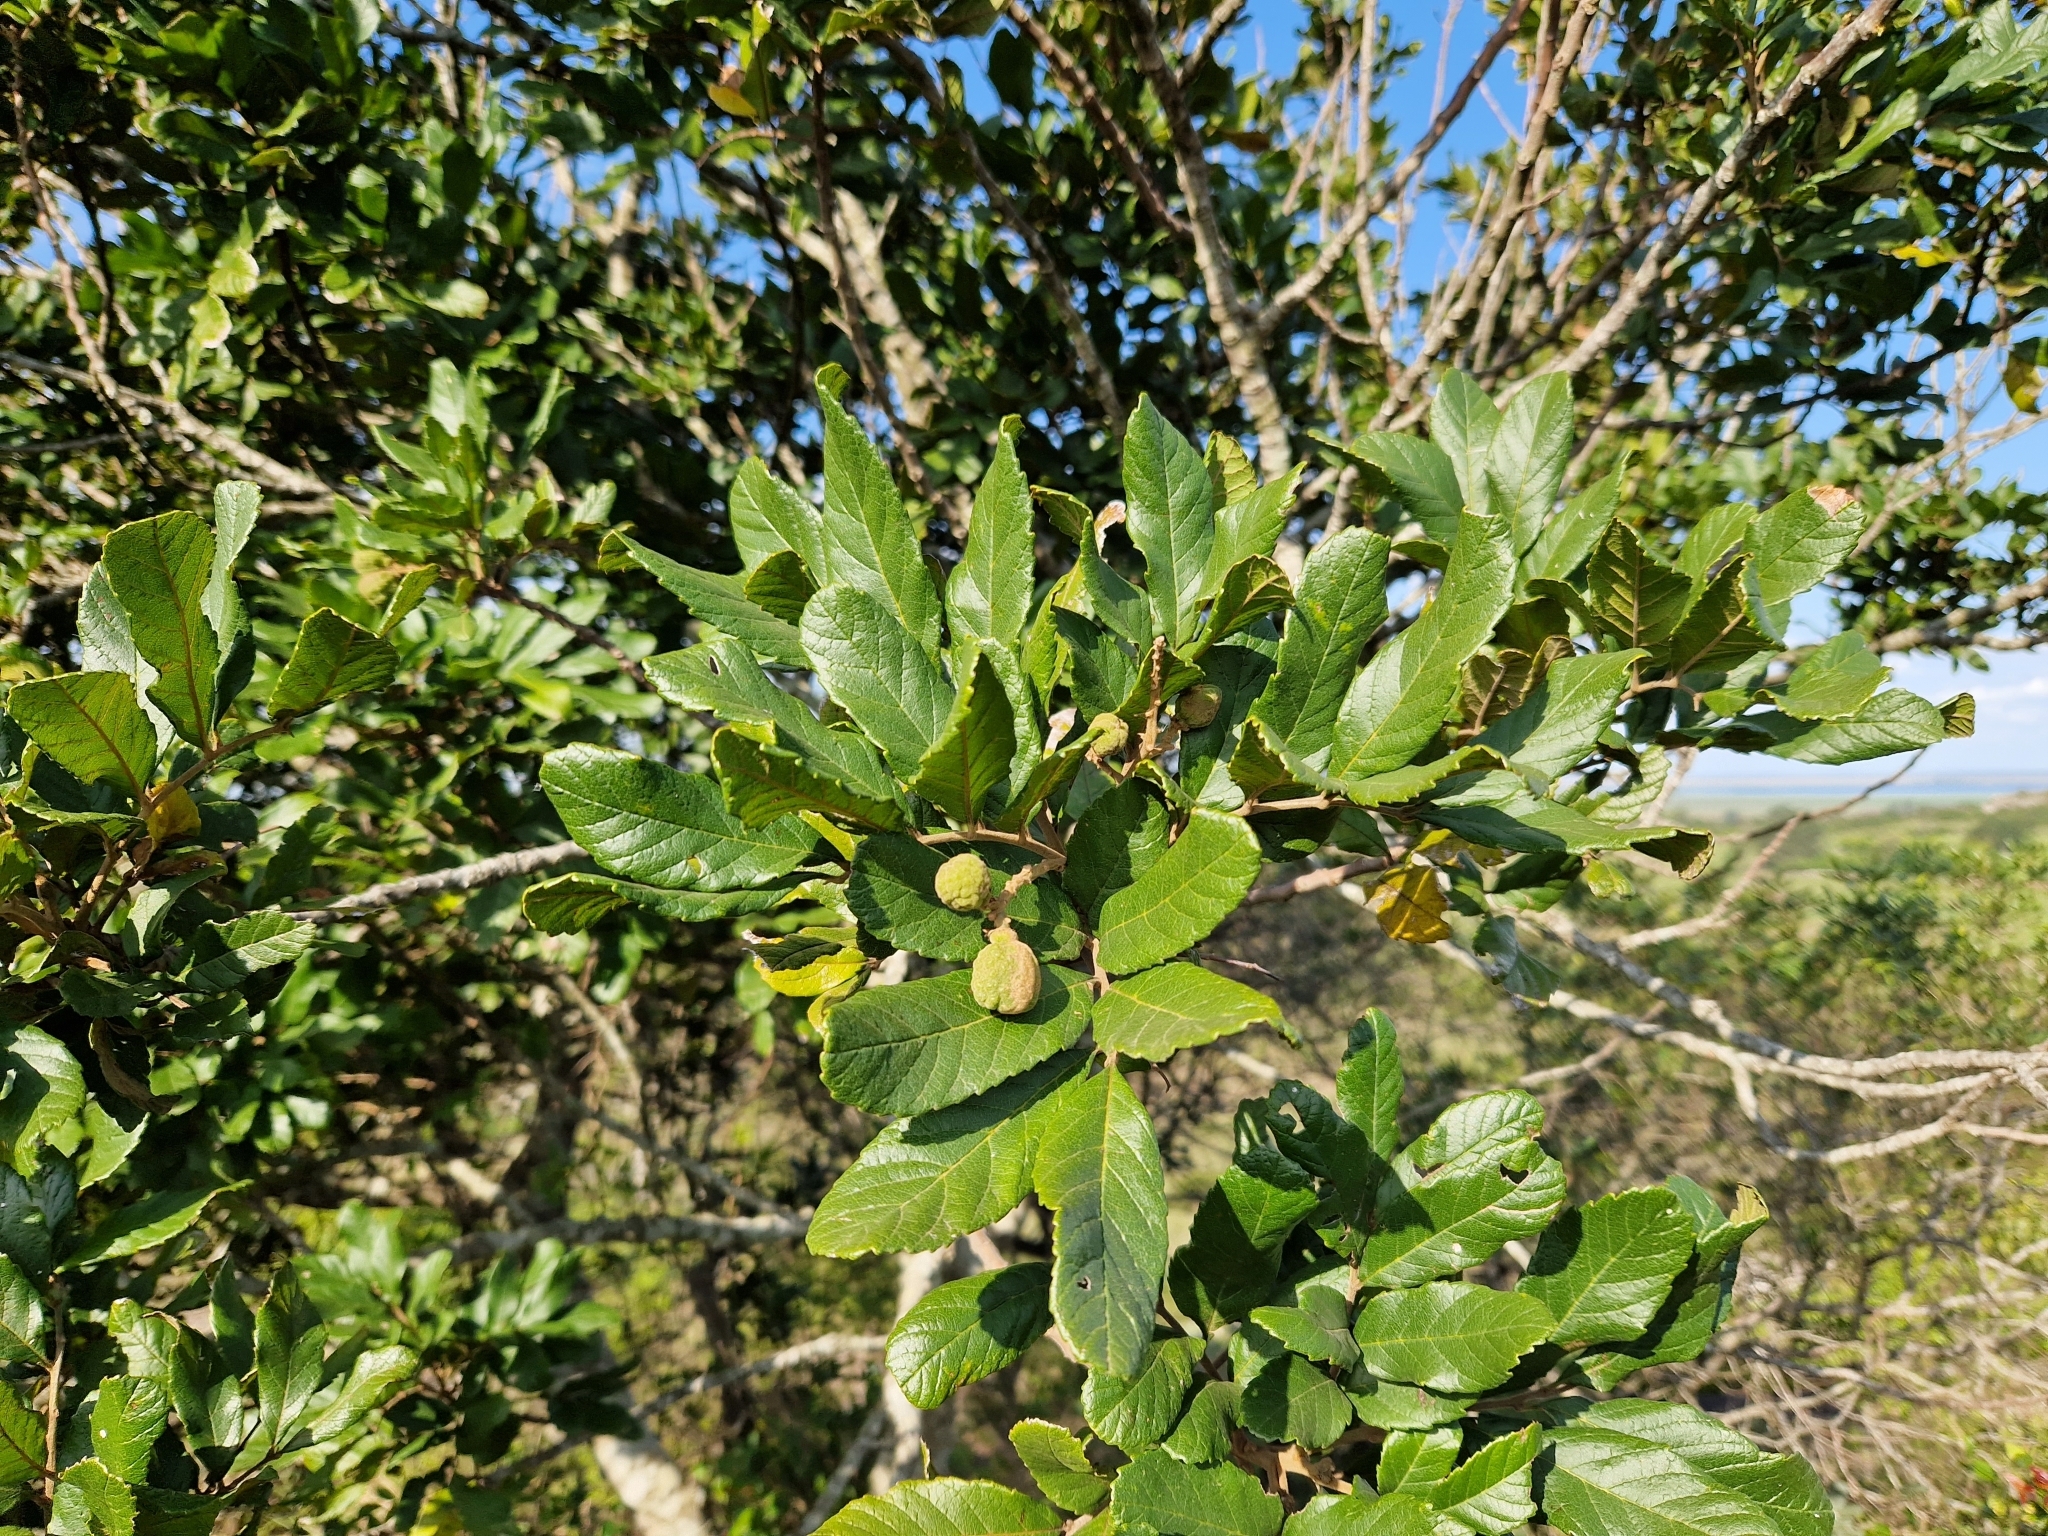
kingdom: Plantae
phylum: Tracheophyta
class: Magnoliopsida
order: Sapindales
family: Sapindaceae
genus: Cupania
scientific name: Cupania vernalis
